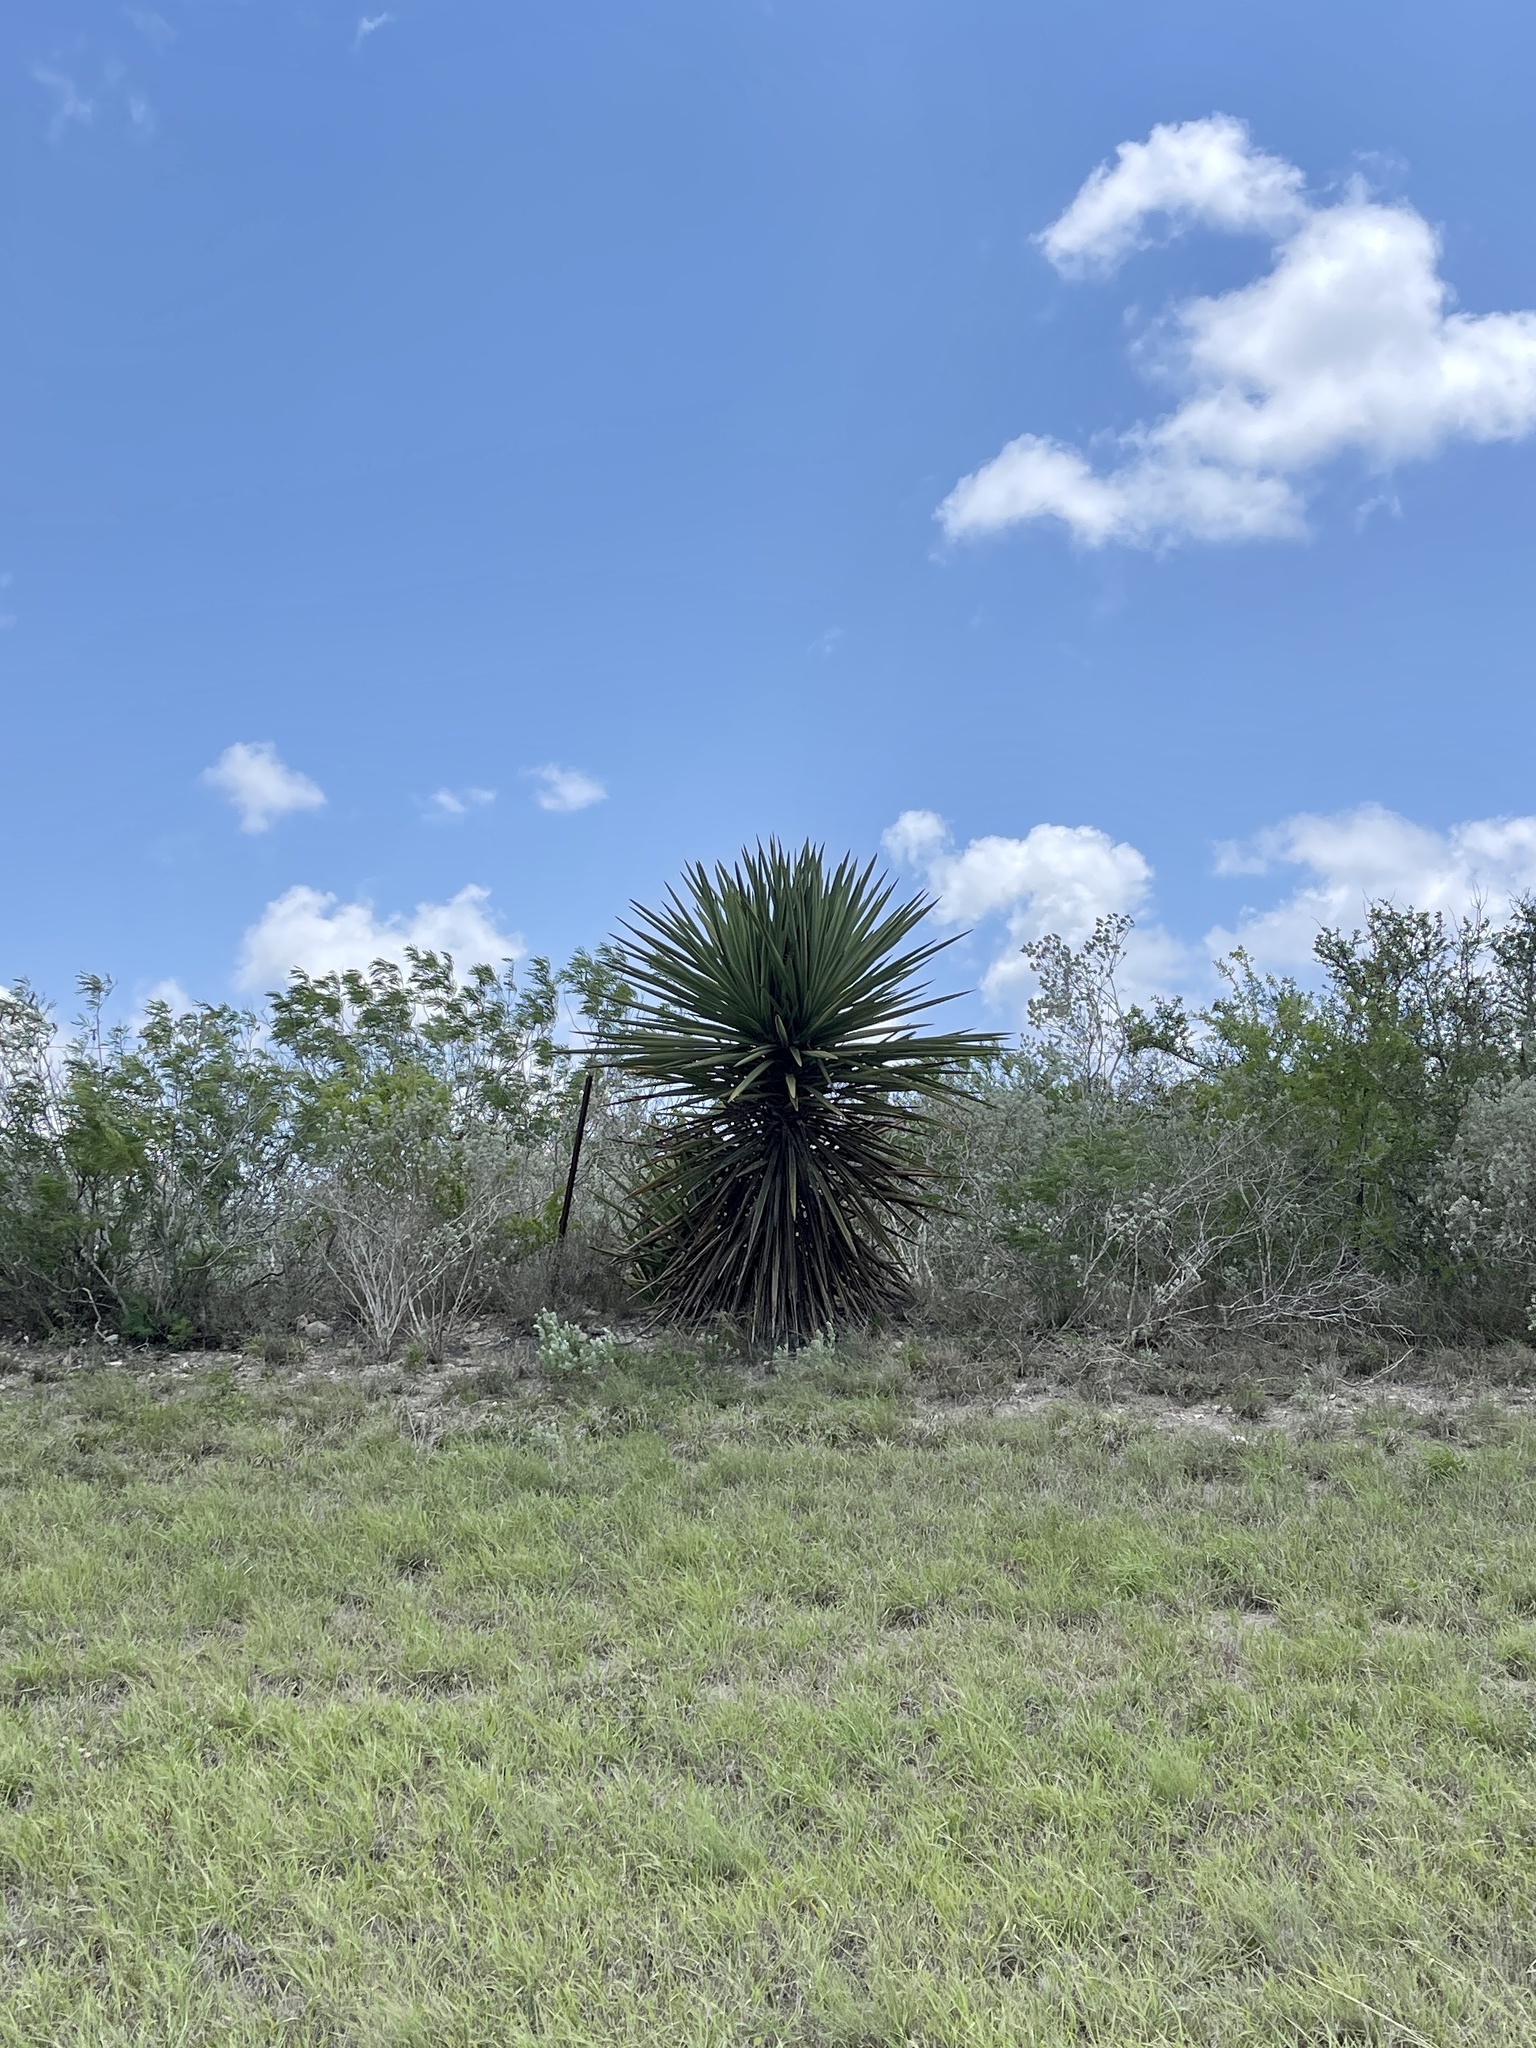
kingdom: Plantae
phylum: Tracheophyta
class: Liliopsida
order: Asparagales
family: Asparagaceae
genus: Yucca
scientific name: Yucca treculiana
